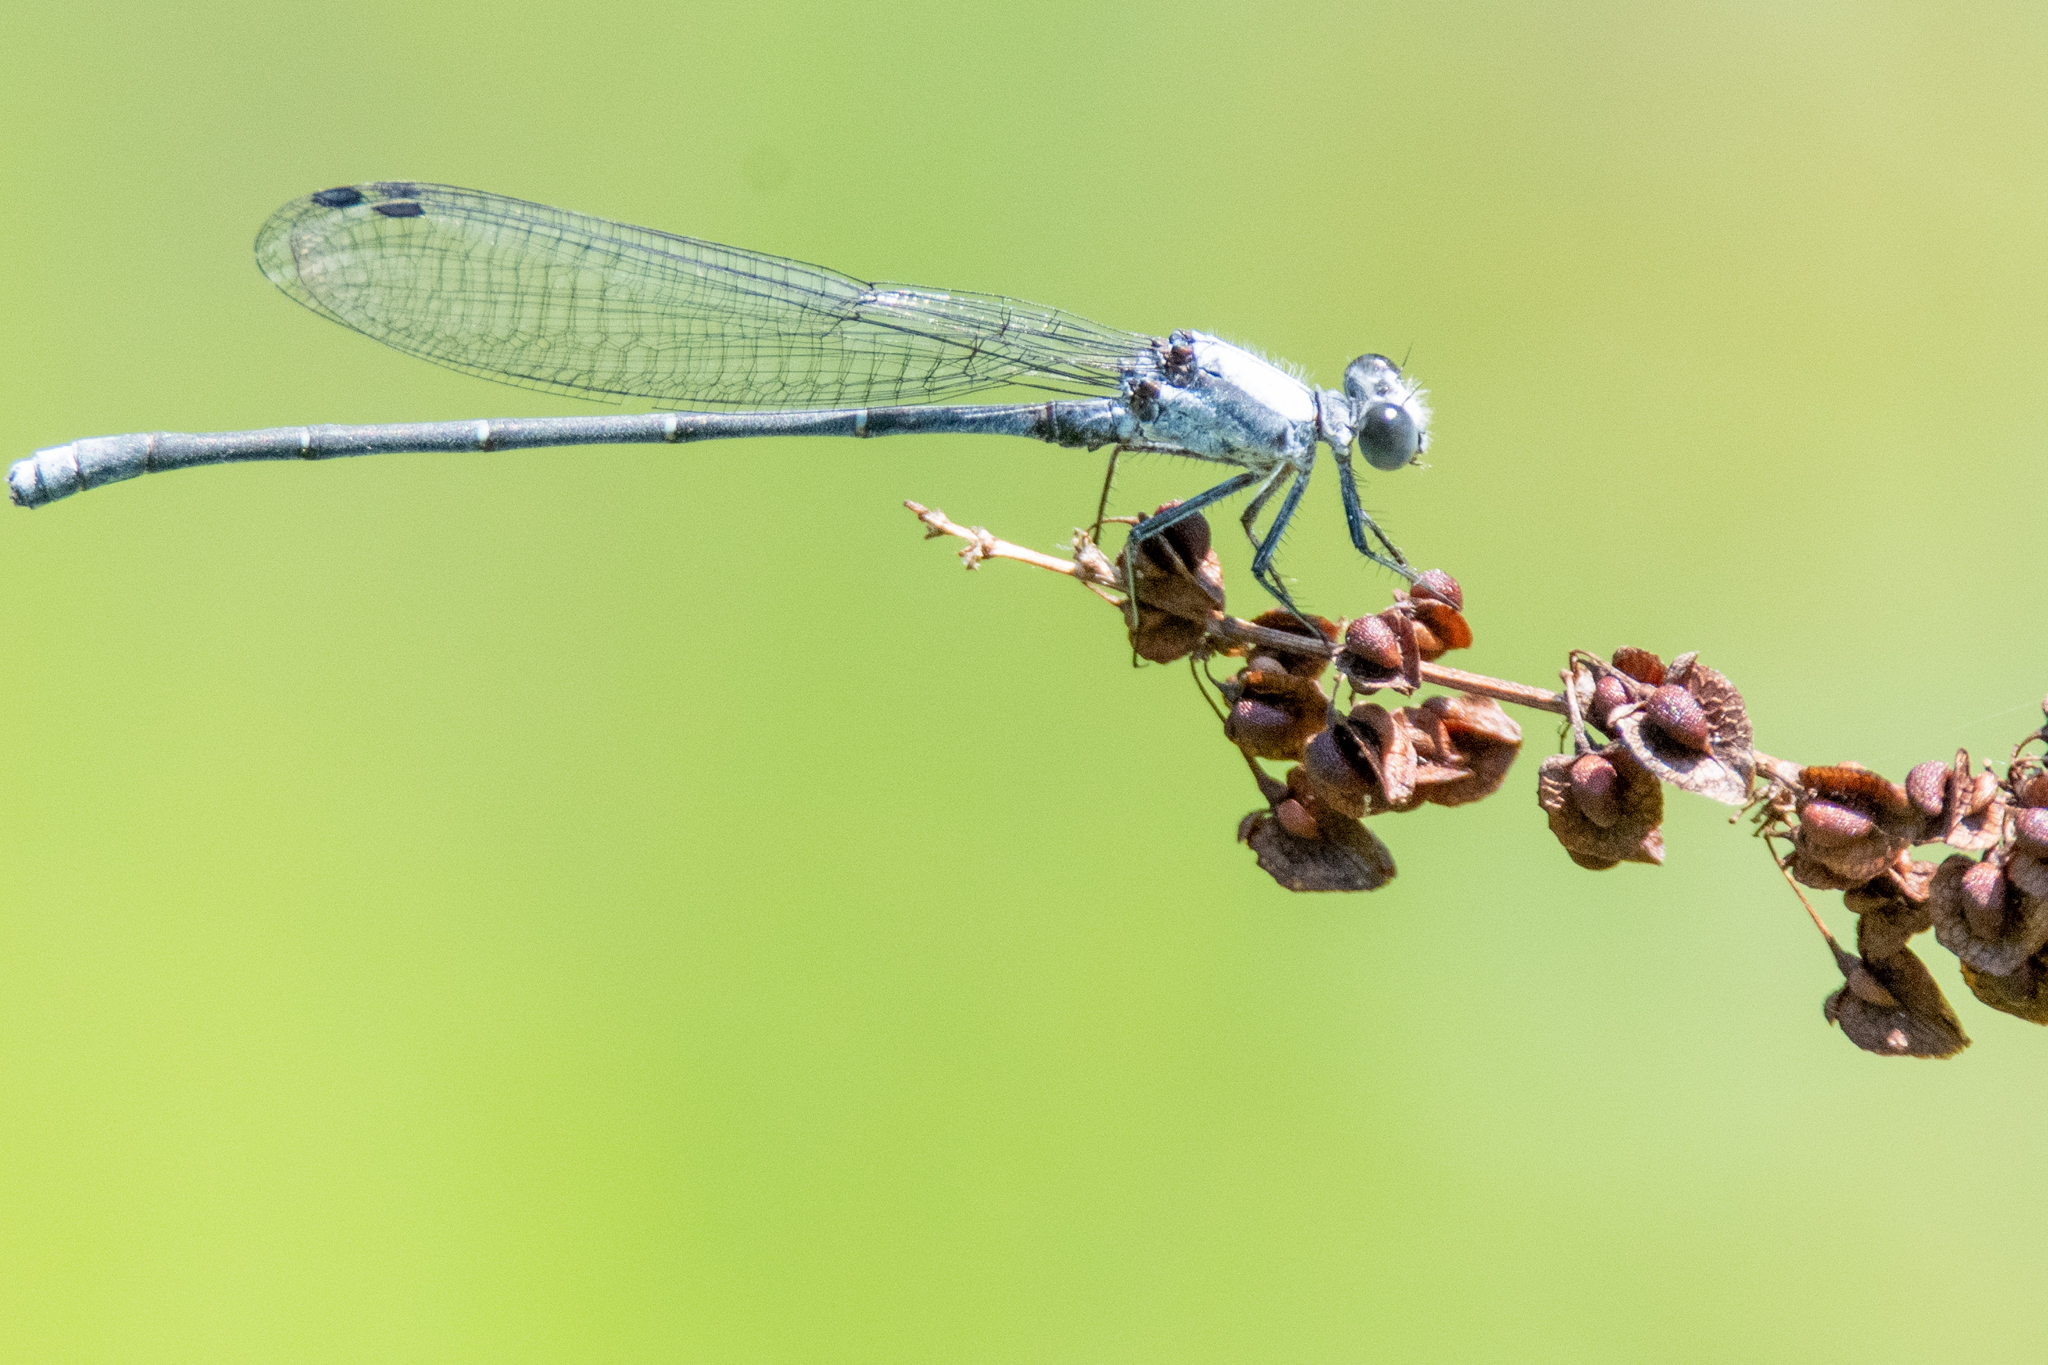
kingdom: Animalia
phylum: Arthropoda
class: Insecta
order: Odonata
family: Coenagrionidae
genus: Argia
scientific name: Argia moesta
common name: Powdered dancer
